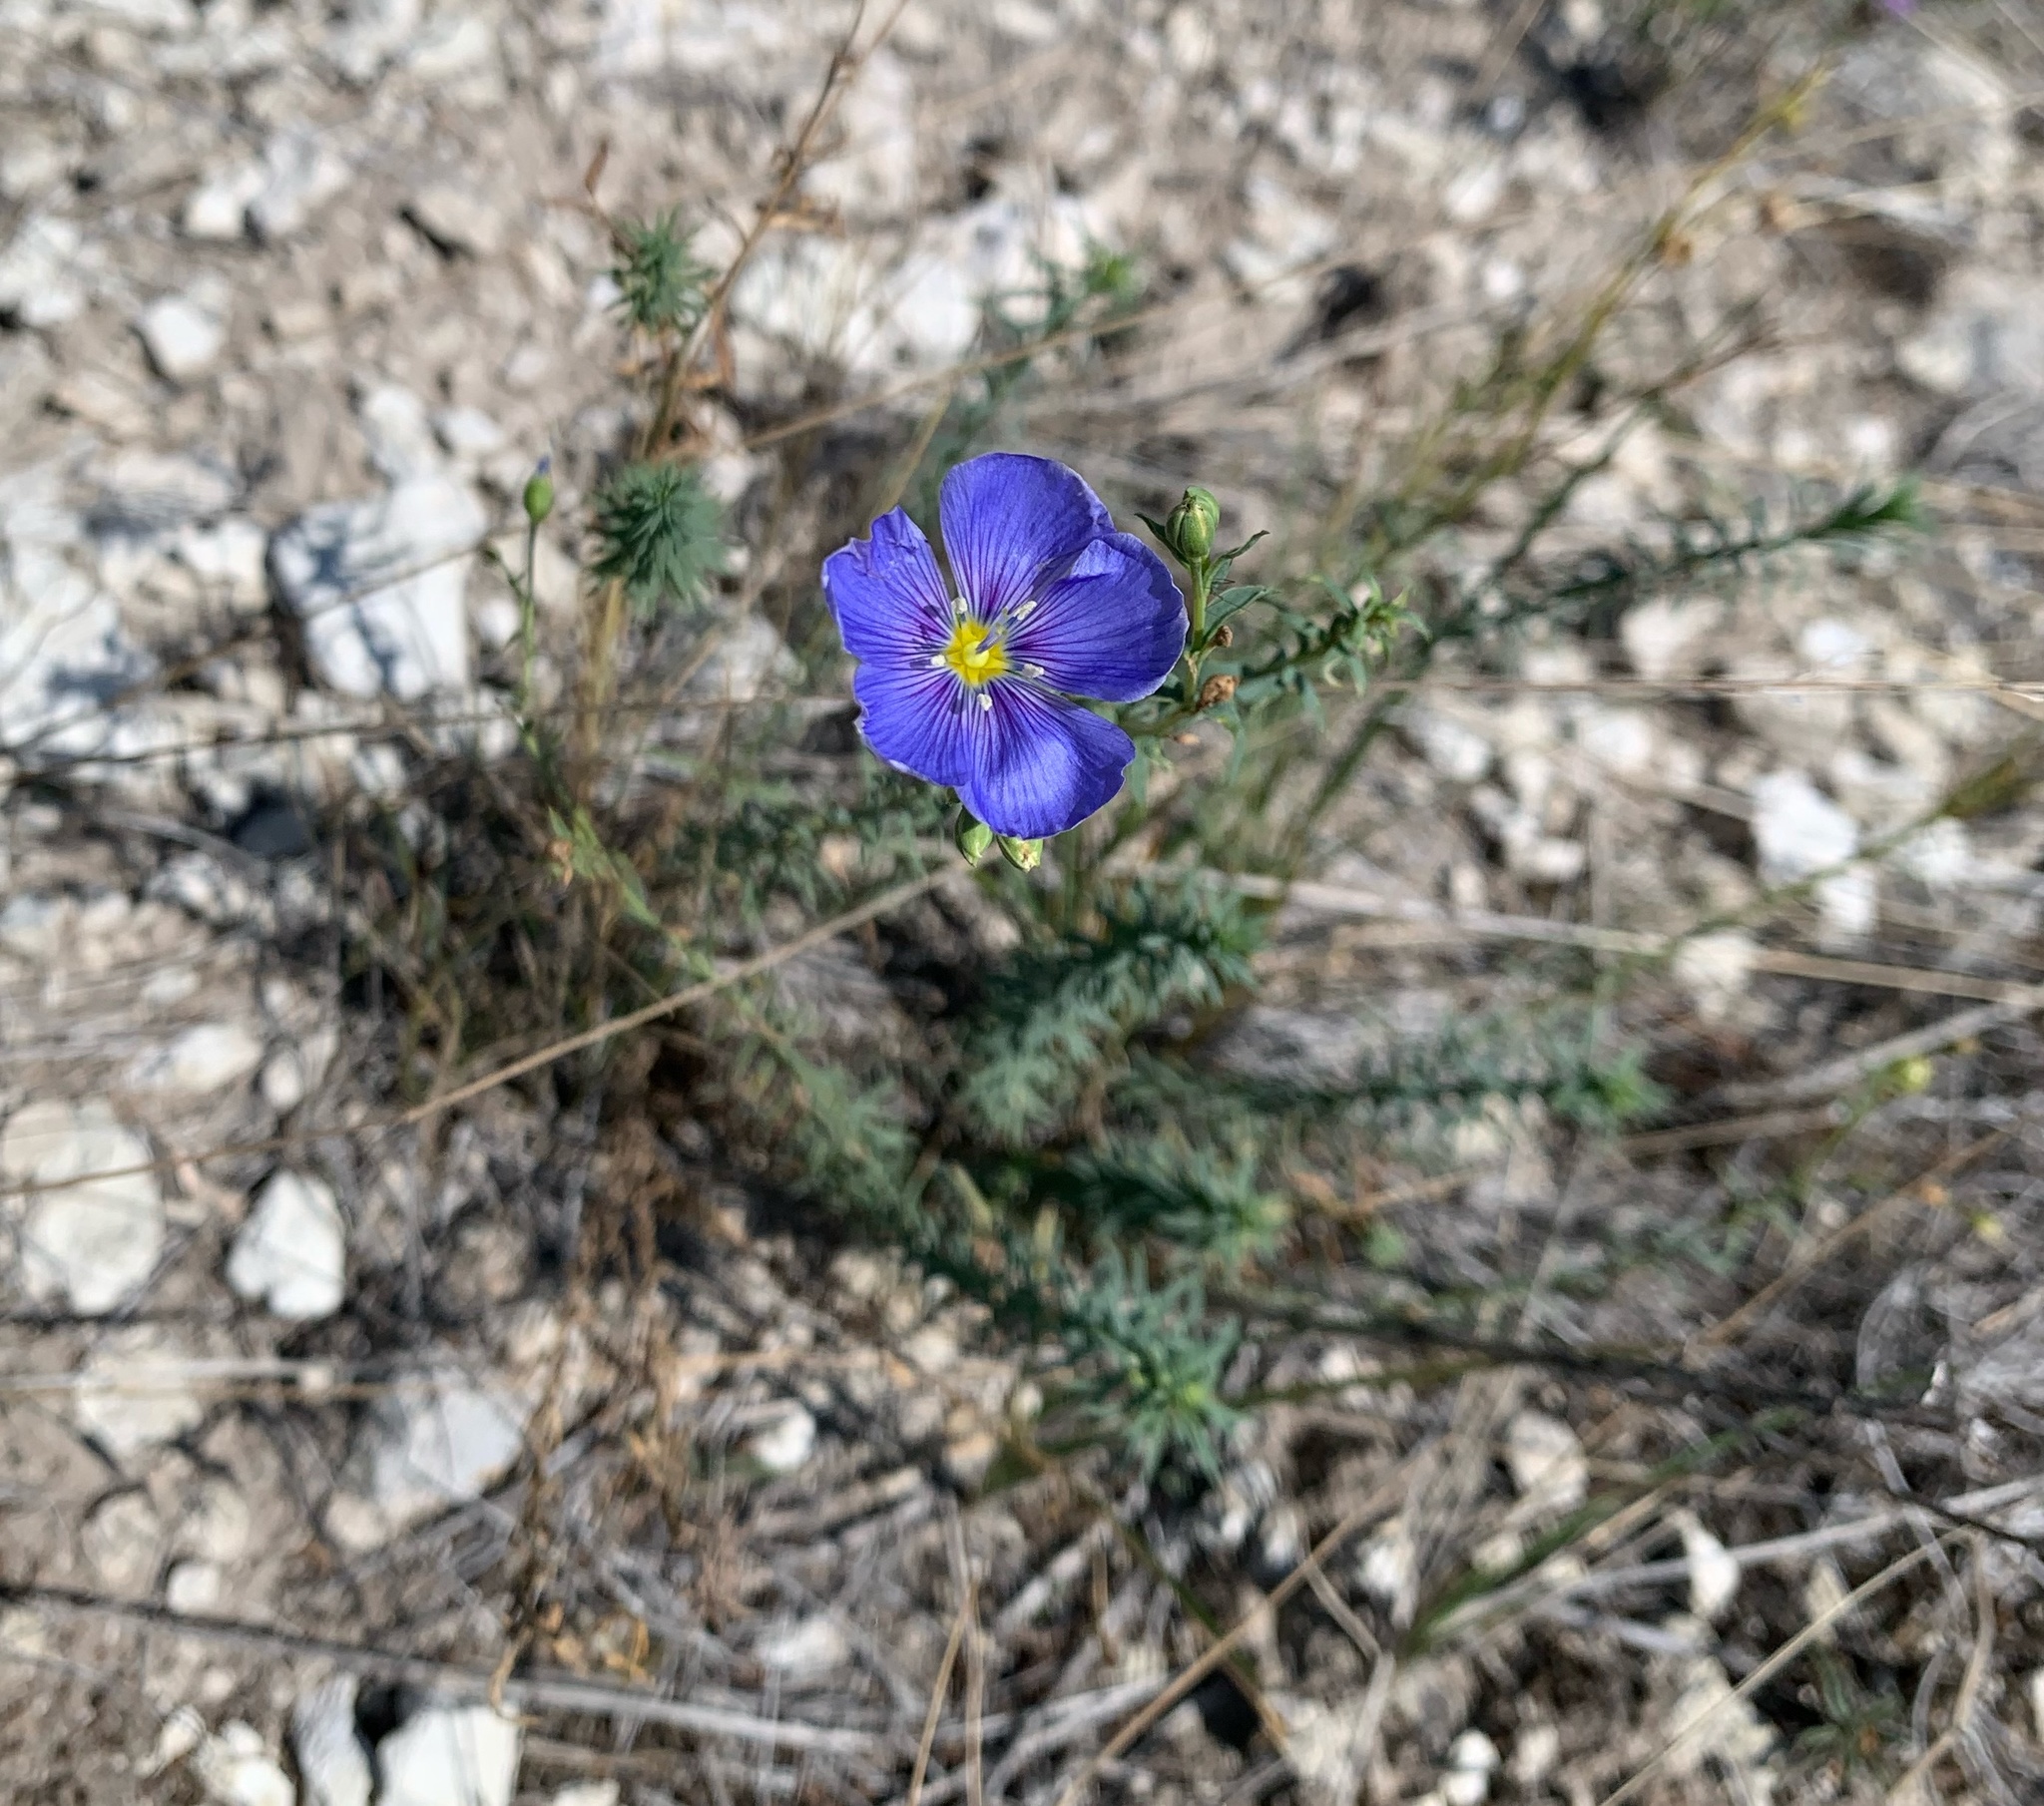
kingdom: Plantae
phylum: Tracheophyta
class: Magnoliopsida
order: Malpighiales
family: Linaceae
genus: Linum
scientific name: Linum lewisii
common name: Prairie flax
